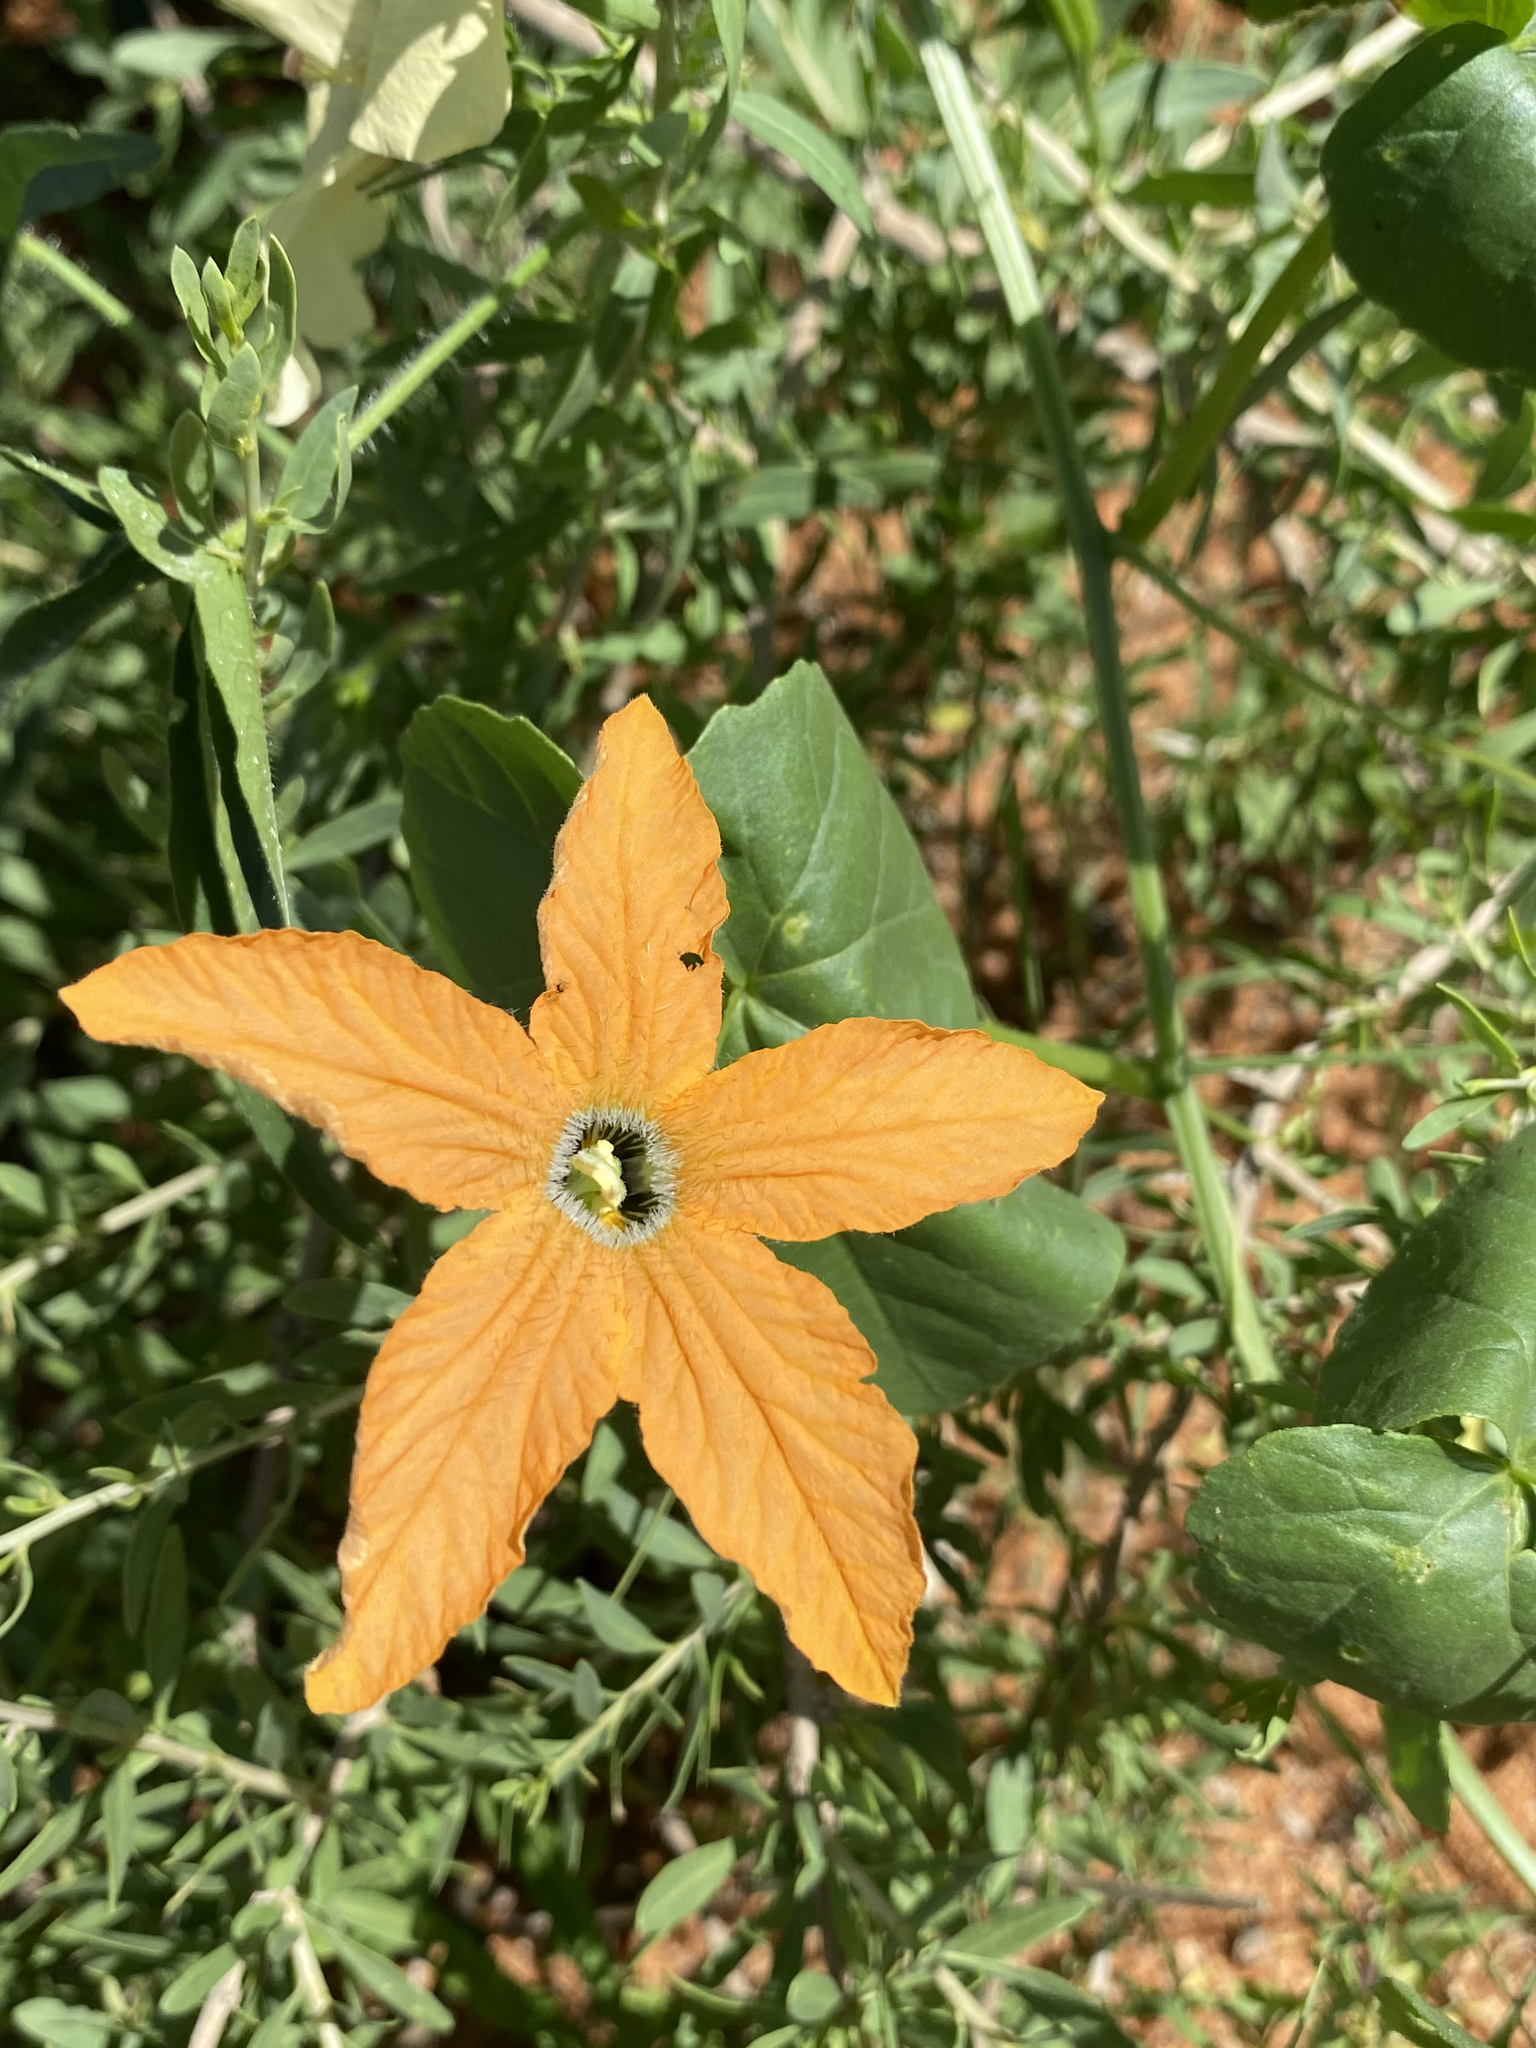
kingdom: Plantae
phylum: Tracheophyta
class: Magnoliopsida
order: Cucurbitales
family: Cucurbitaceae
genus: Momordica
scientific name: Momordica humilis
